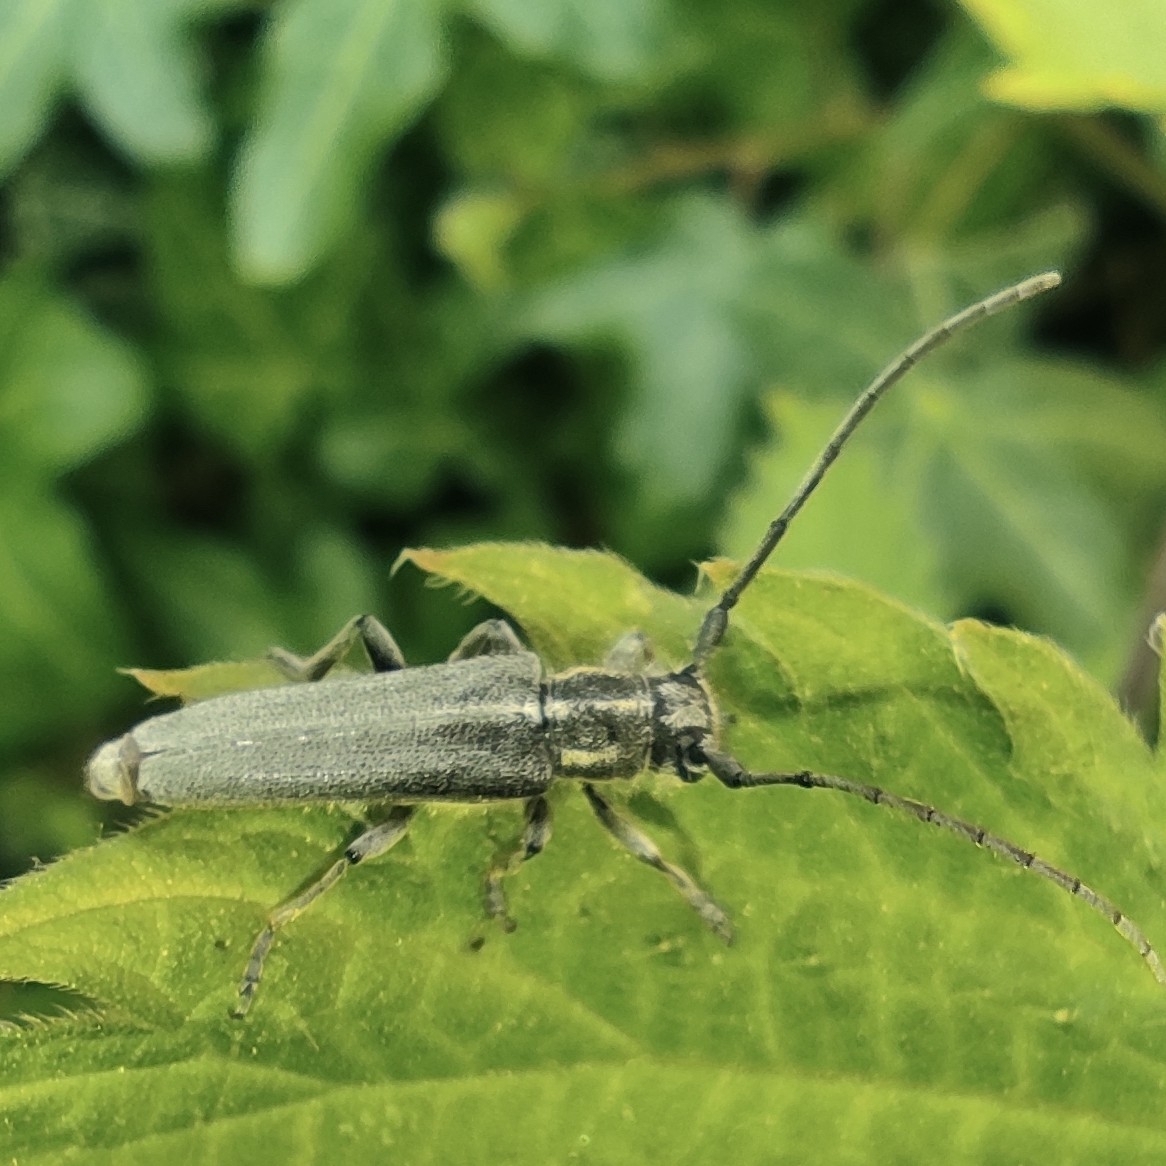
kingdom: Animalia
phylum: Arthropoda
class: Insecta
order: Coleoptera
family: Cerambycidae
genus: Phytoecia
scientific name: Phytoecia nigricornis
